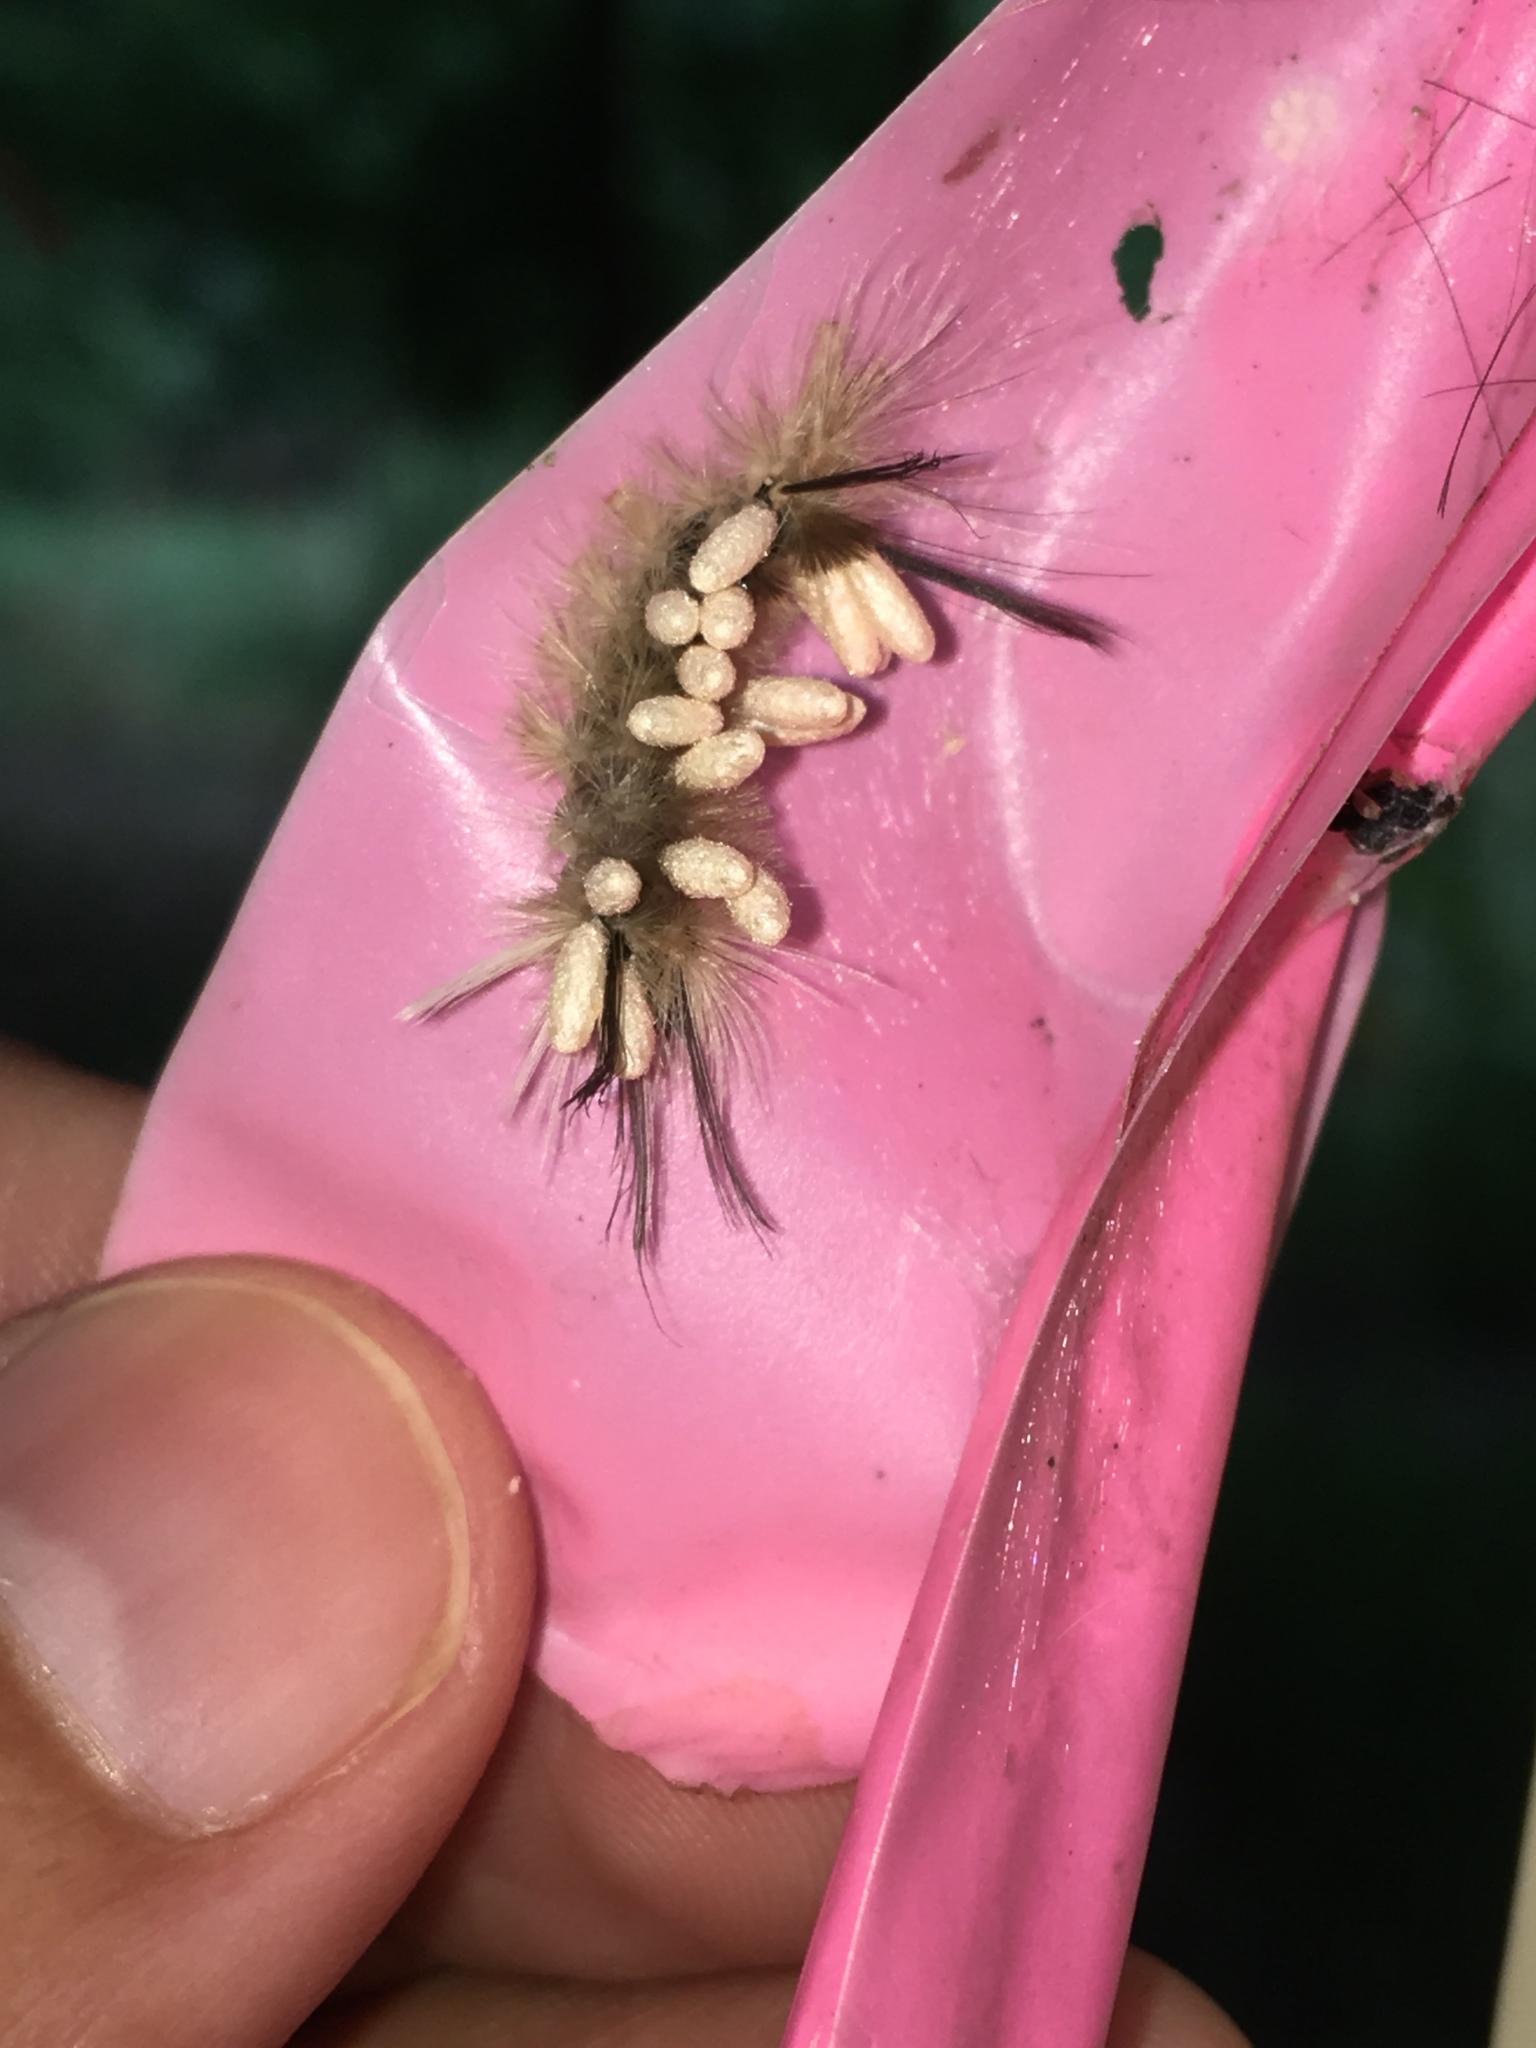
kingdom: Animalia
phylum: Arthropoda
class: Insecta
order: Lepidoptera
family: Erebidae
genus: Halysidota
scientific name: Halysidota tessellaris
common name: Banded tussock moth
